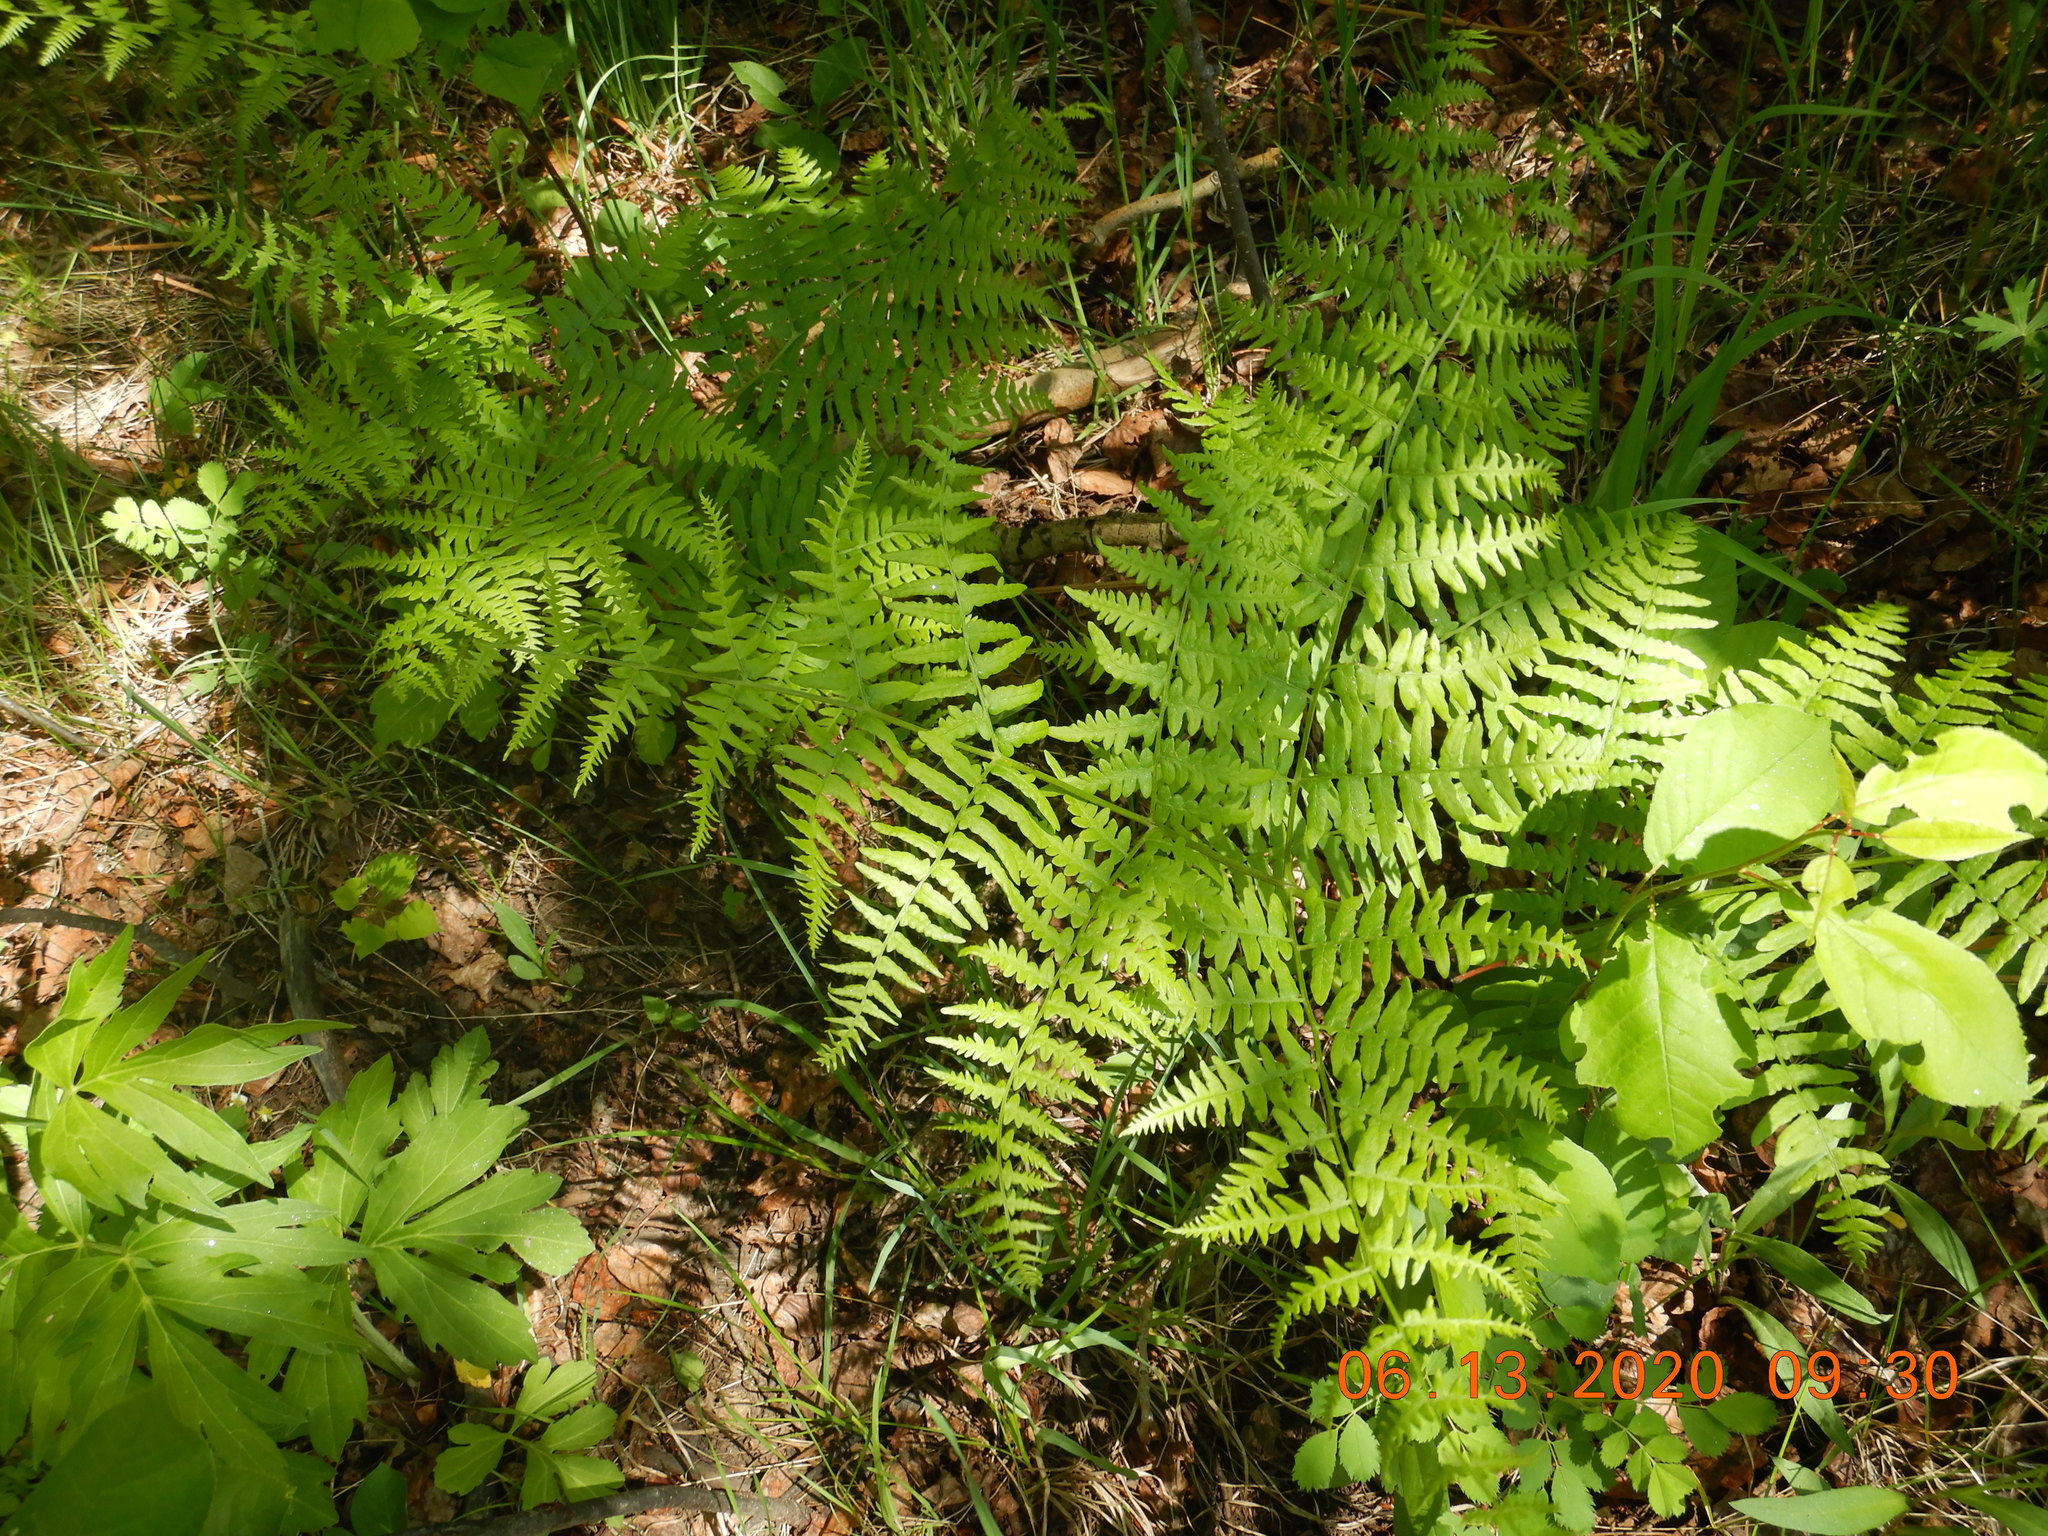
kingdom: Plantae
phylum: Tracheophyta
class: Polypodiopsida
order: Polypodiales
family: Dennstaedtiaceae
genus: Pteridium
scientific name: Pteridium aquilinum
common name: Bracken
